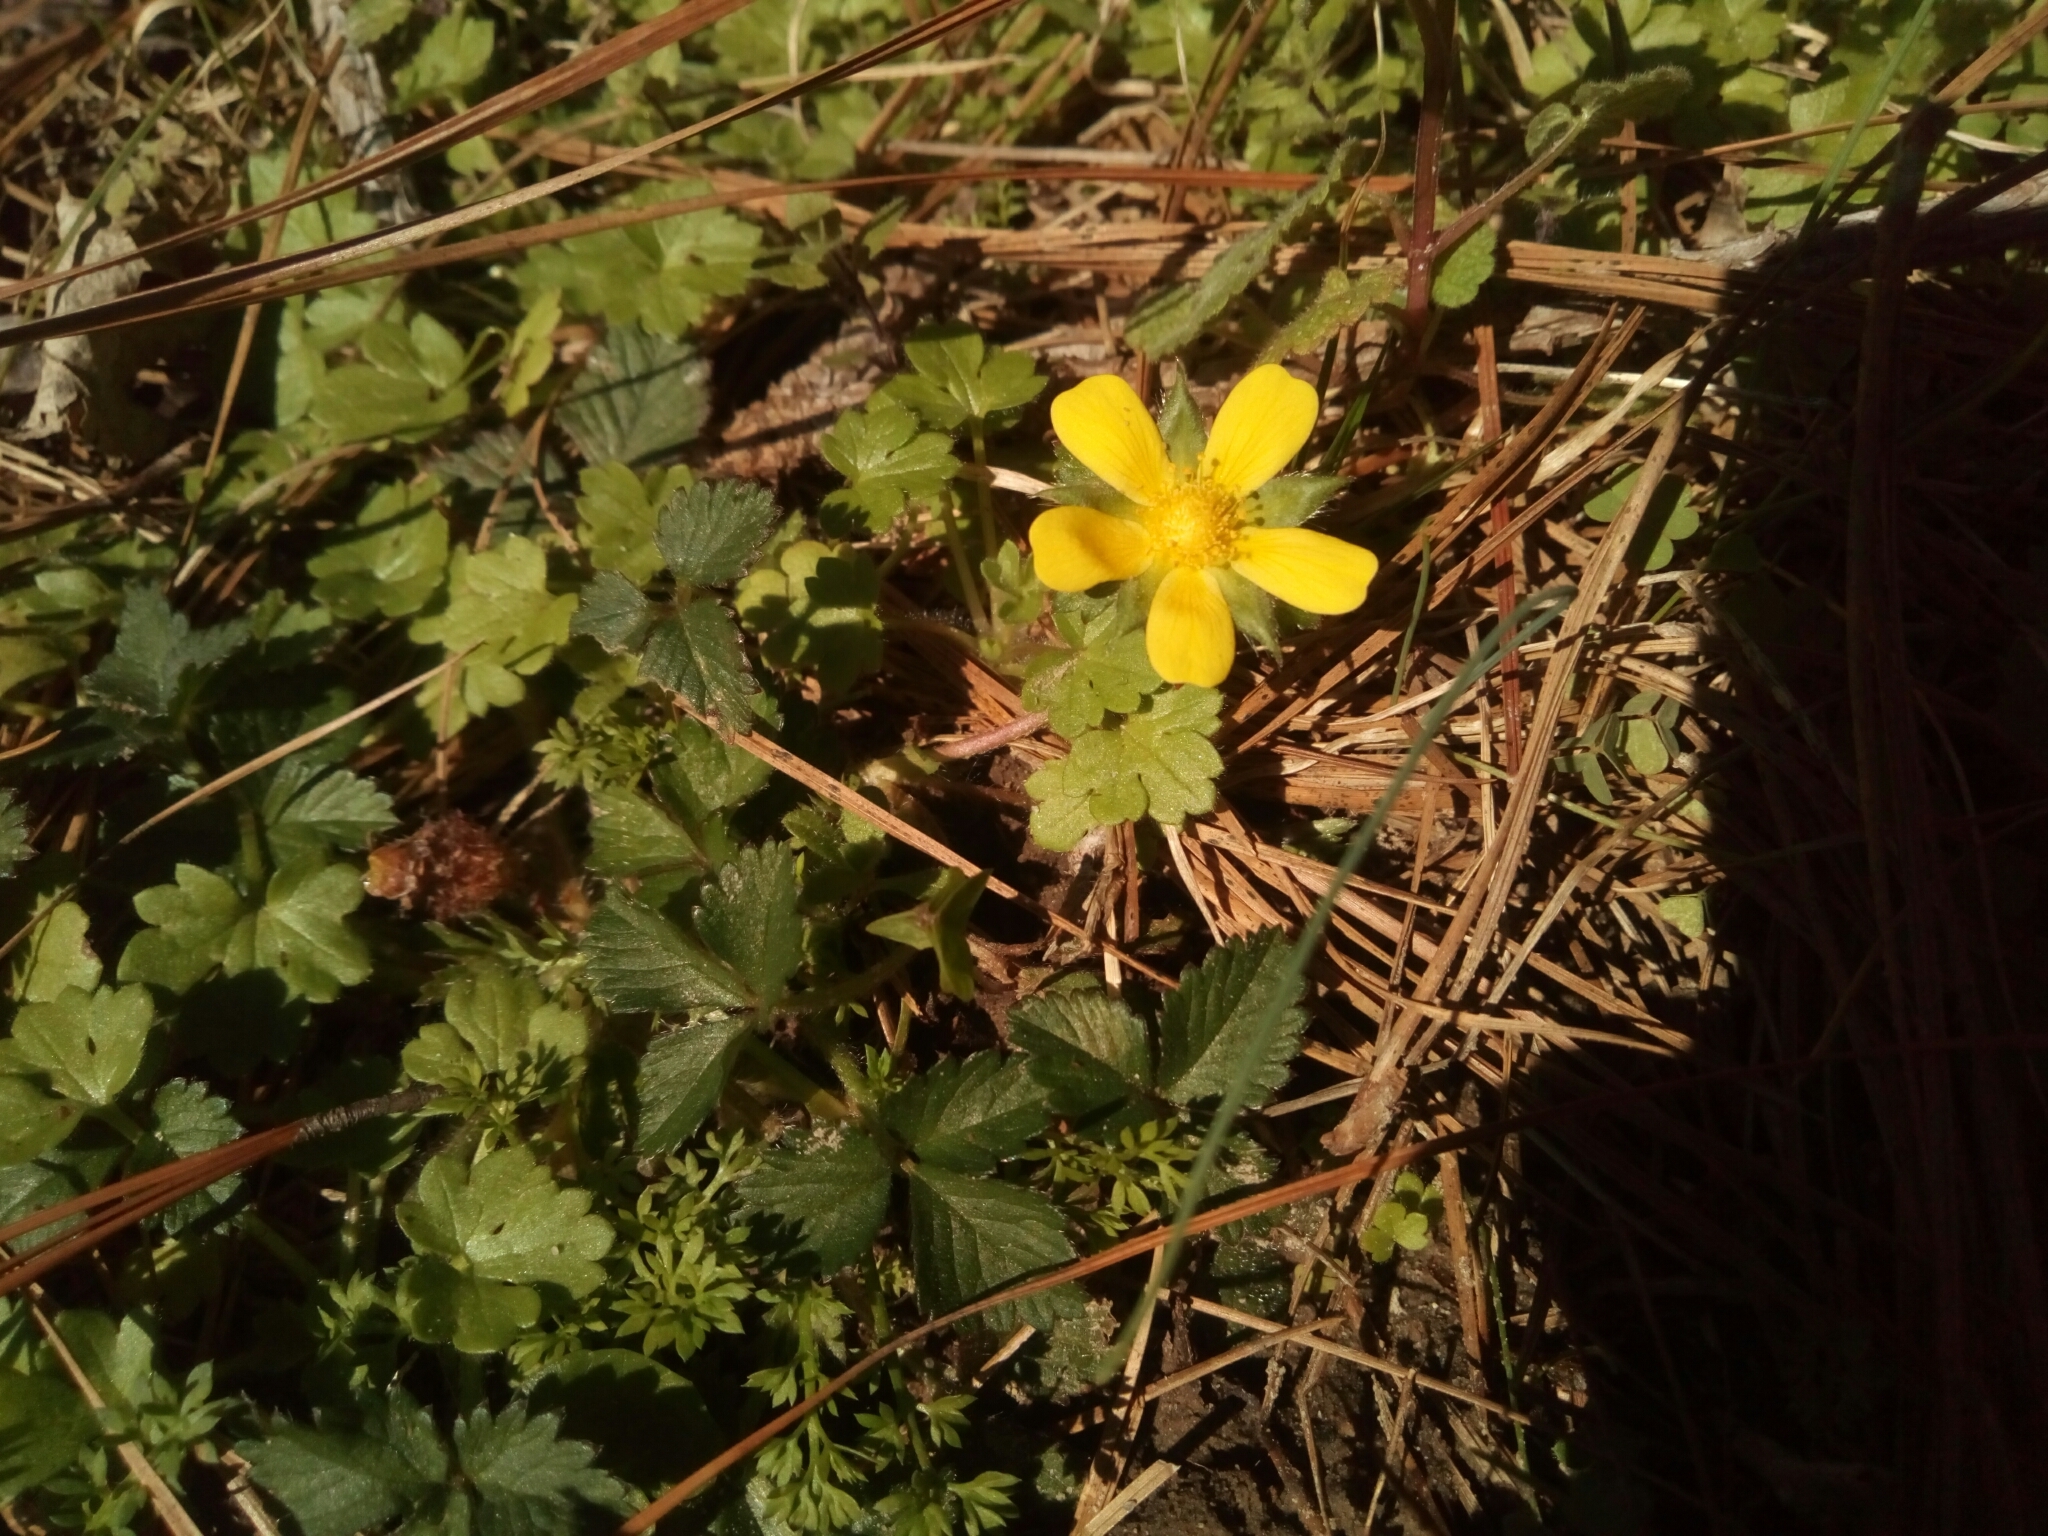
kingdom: Plantae
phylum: Tracheophyta
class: Magnoliopsida
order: Rosales
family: Rosaceae
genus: Potentilla
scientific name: Potentilla indica
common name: Yellow-flowered strawberry
